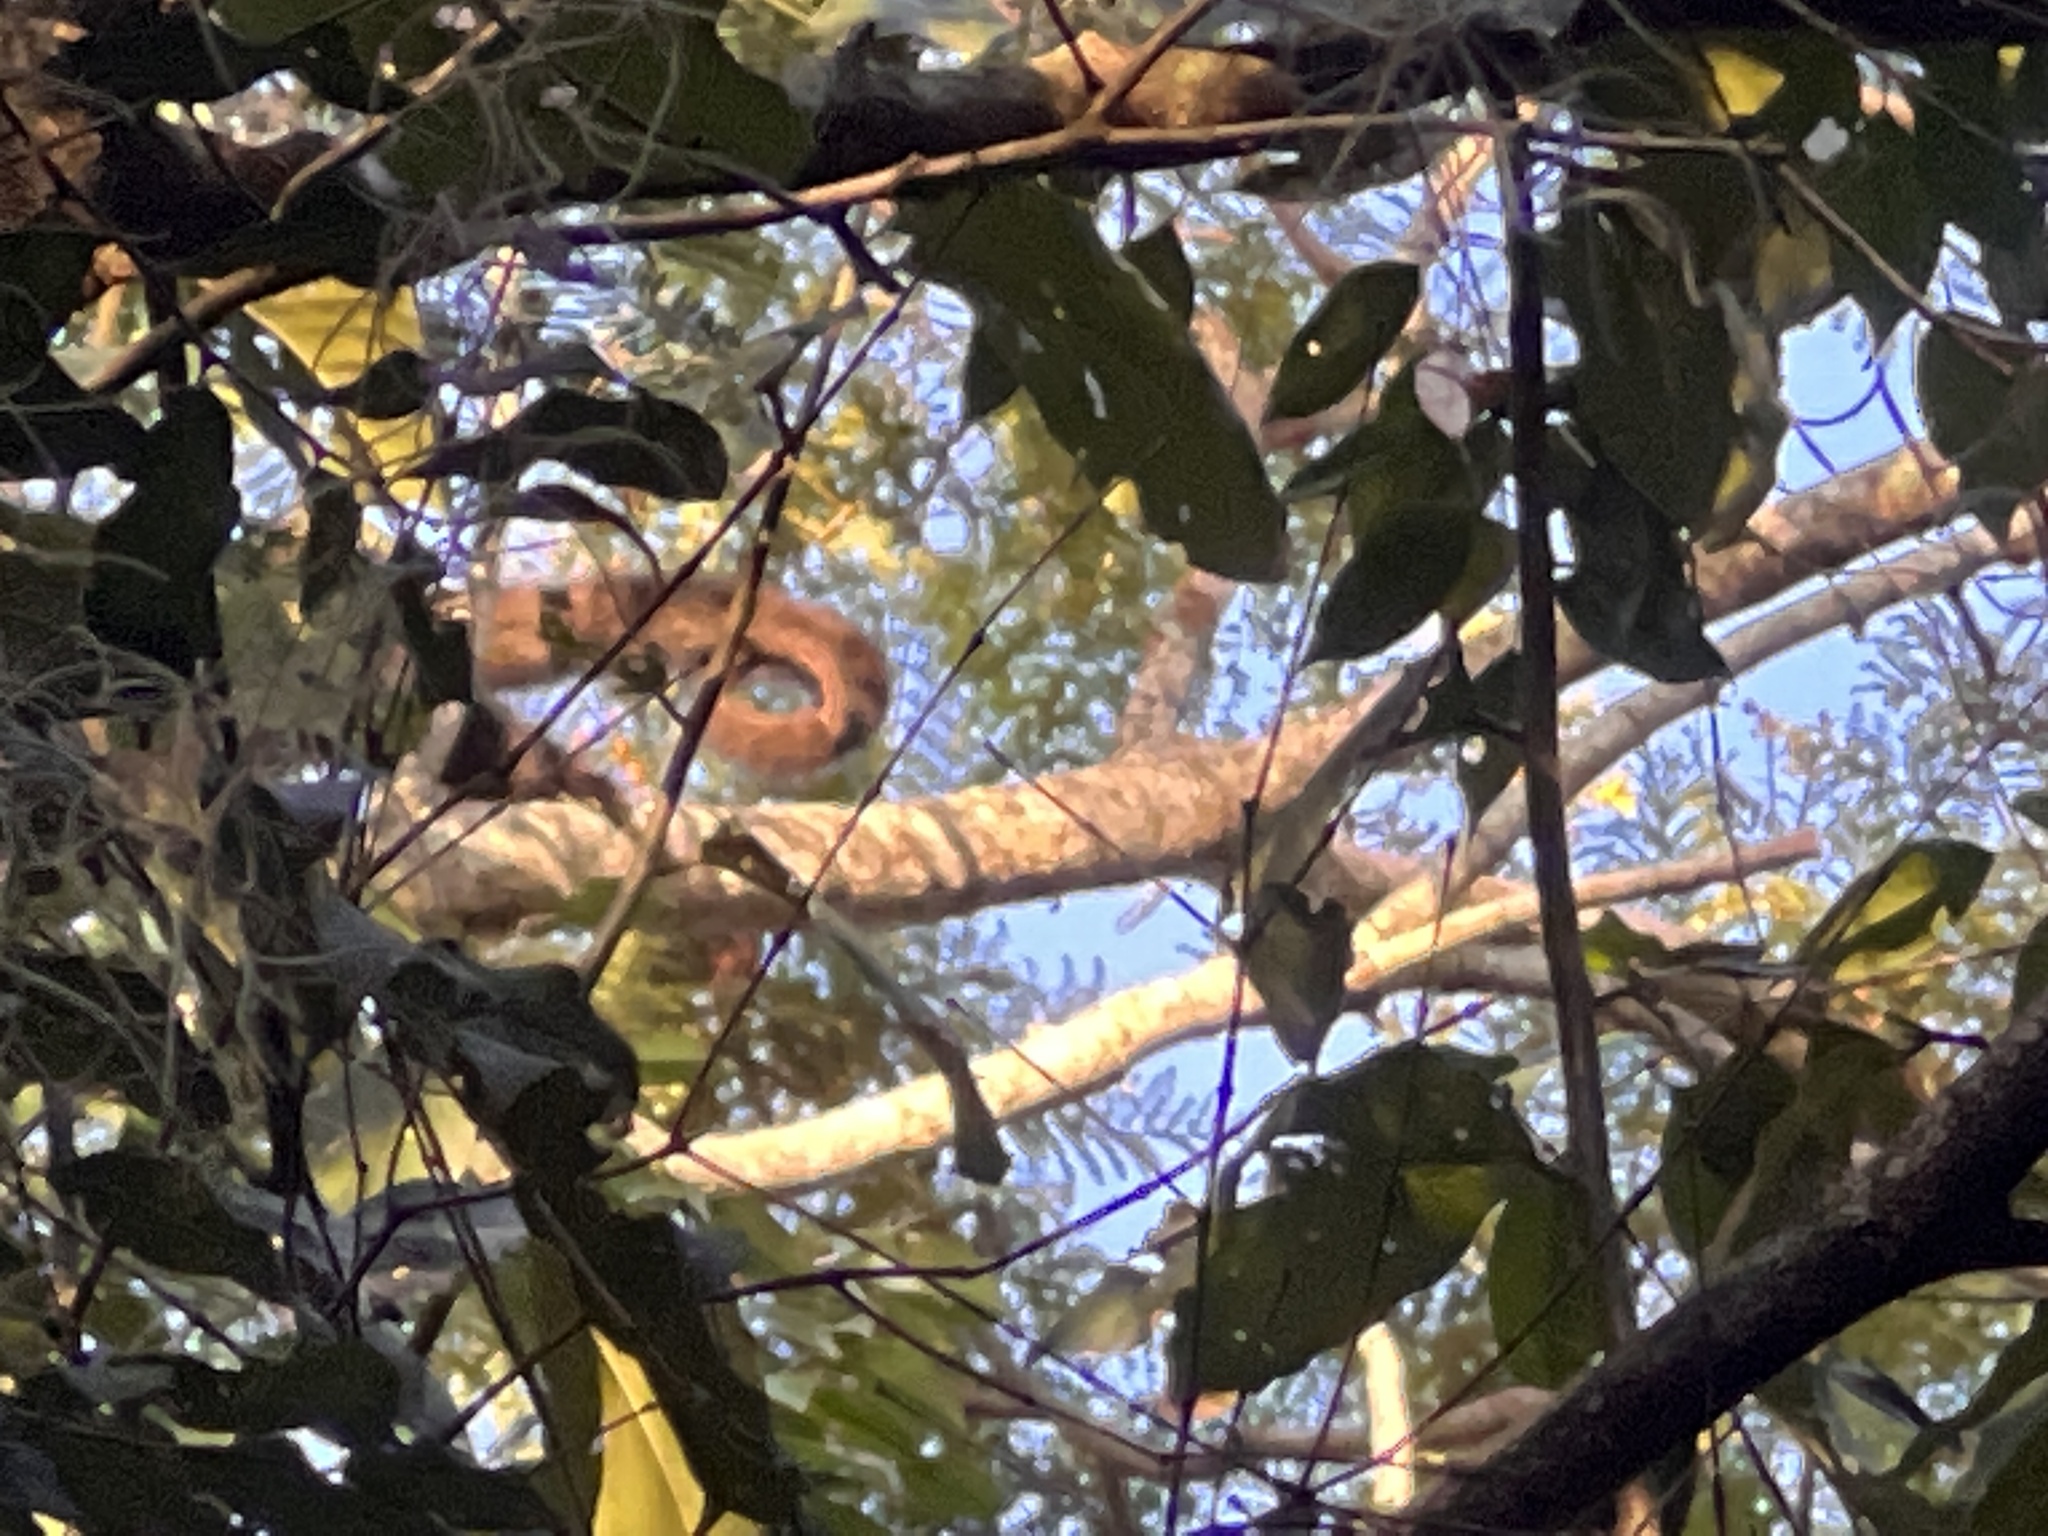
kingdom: Animalia
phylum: Chordata
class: Mammalia
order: Primates
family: Atelidae
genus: Alouatta
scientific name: Alouatta caraya
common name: Black howler
